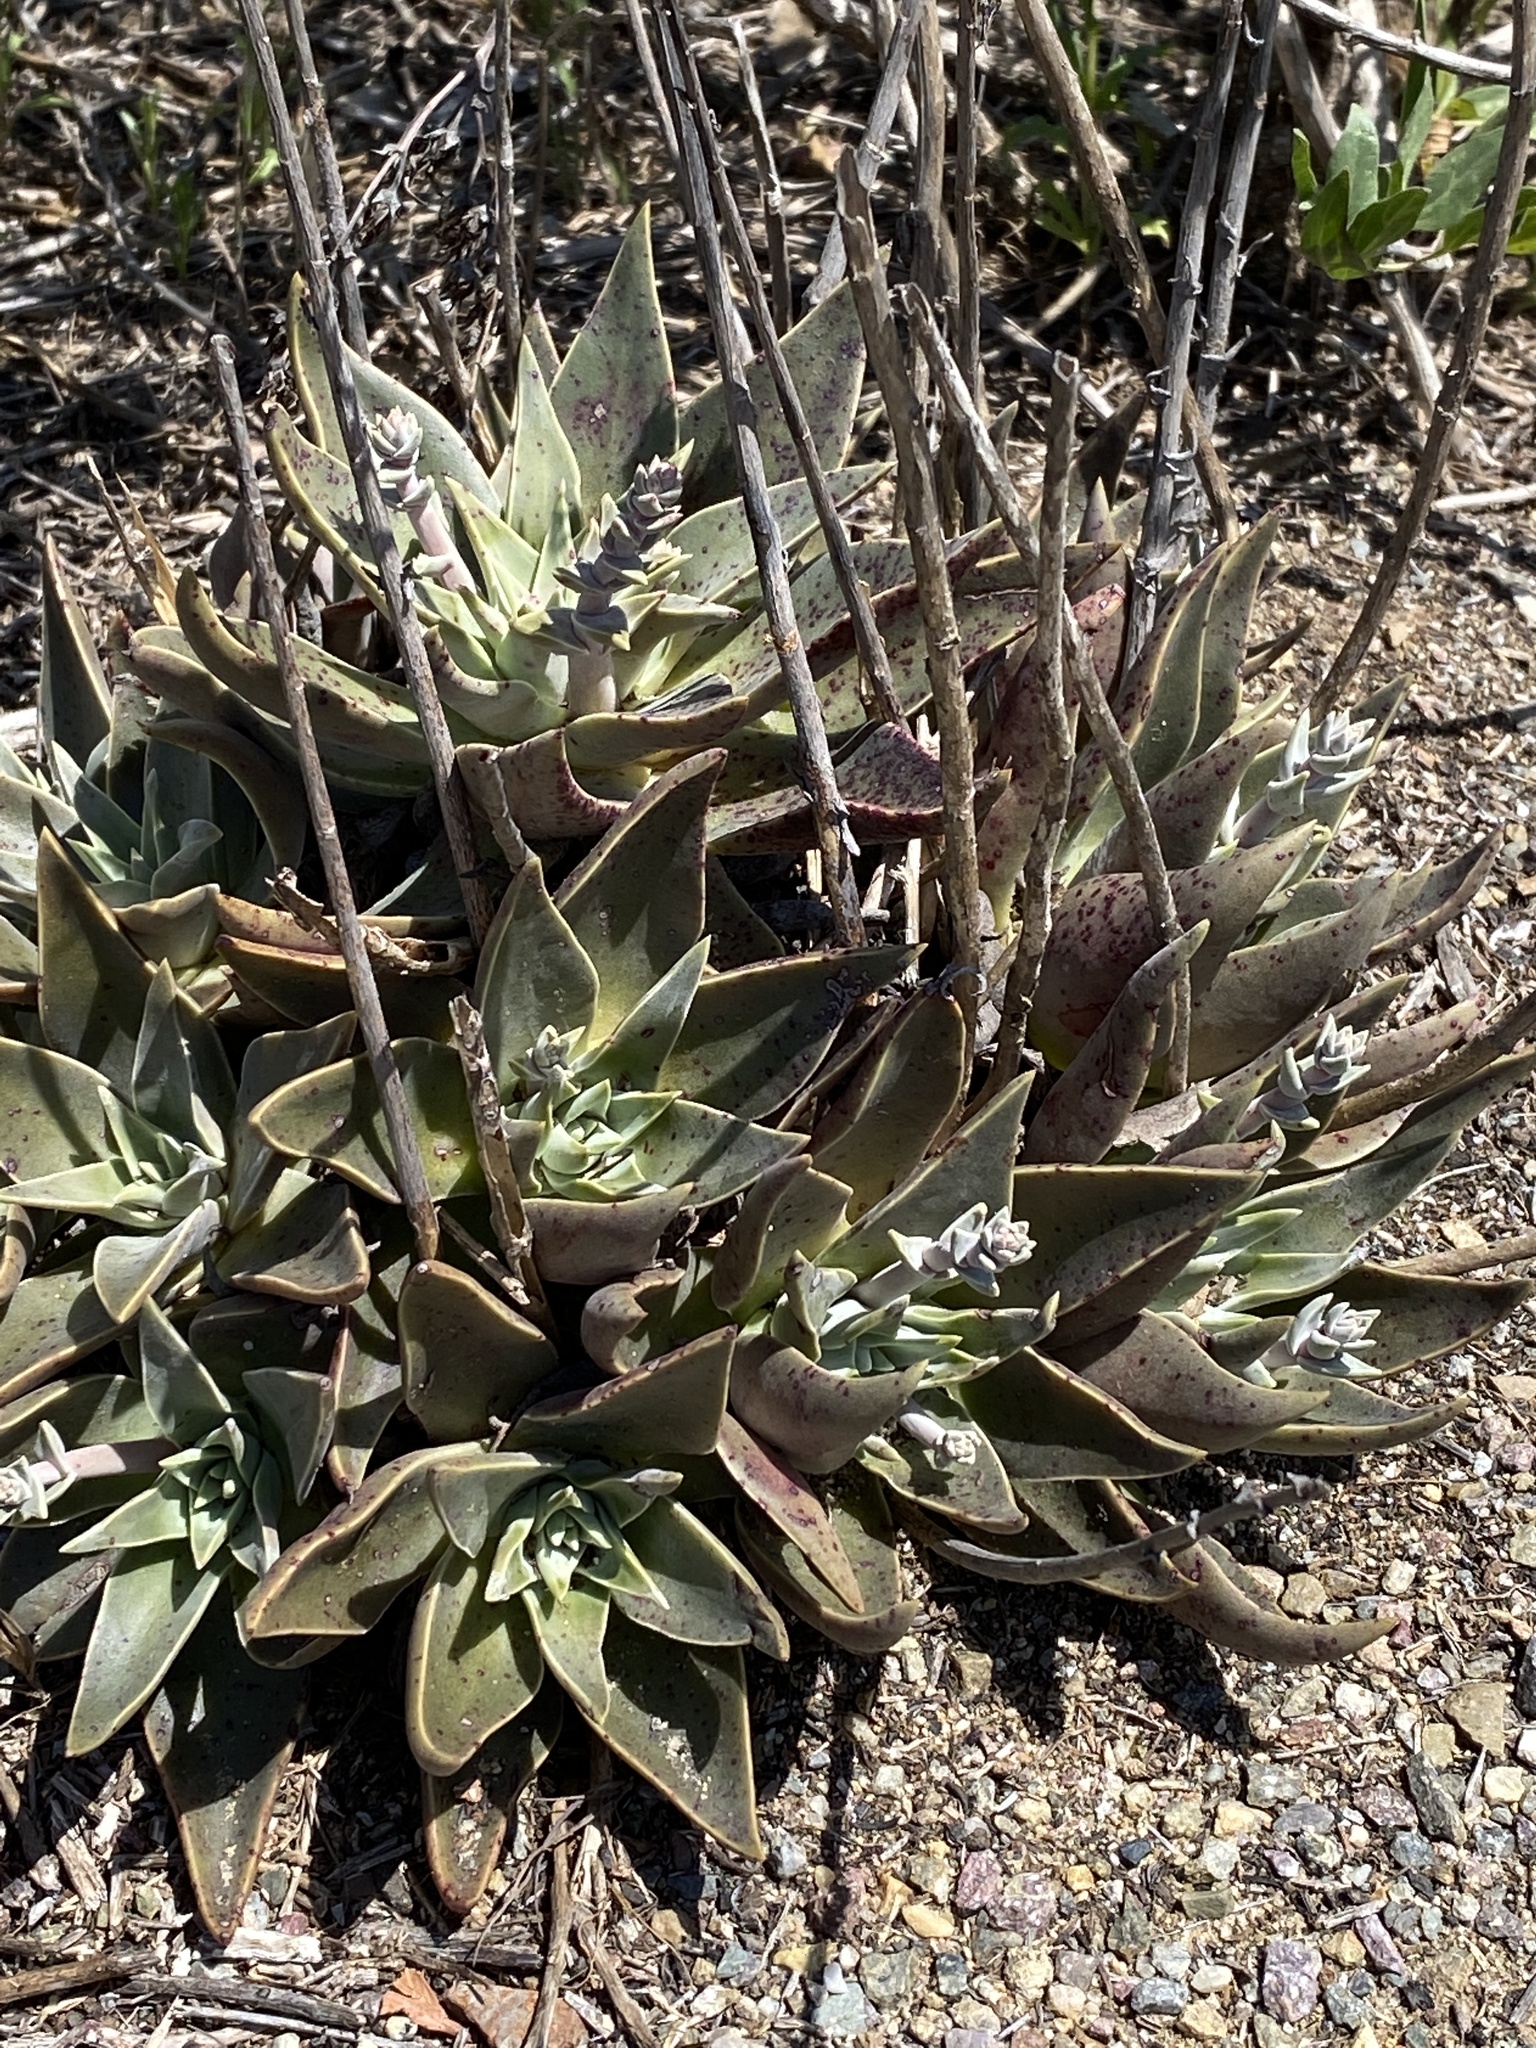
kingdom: Plantae
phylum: Tracheophyta
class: Magnoliopsida
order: Saxifragales
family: Crassulaceae
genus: Dudleya
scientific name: Dudleya lanceolata
